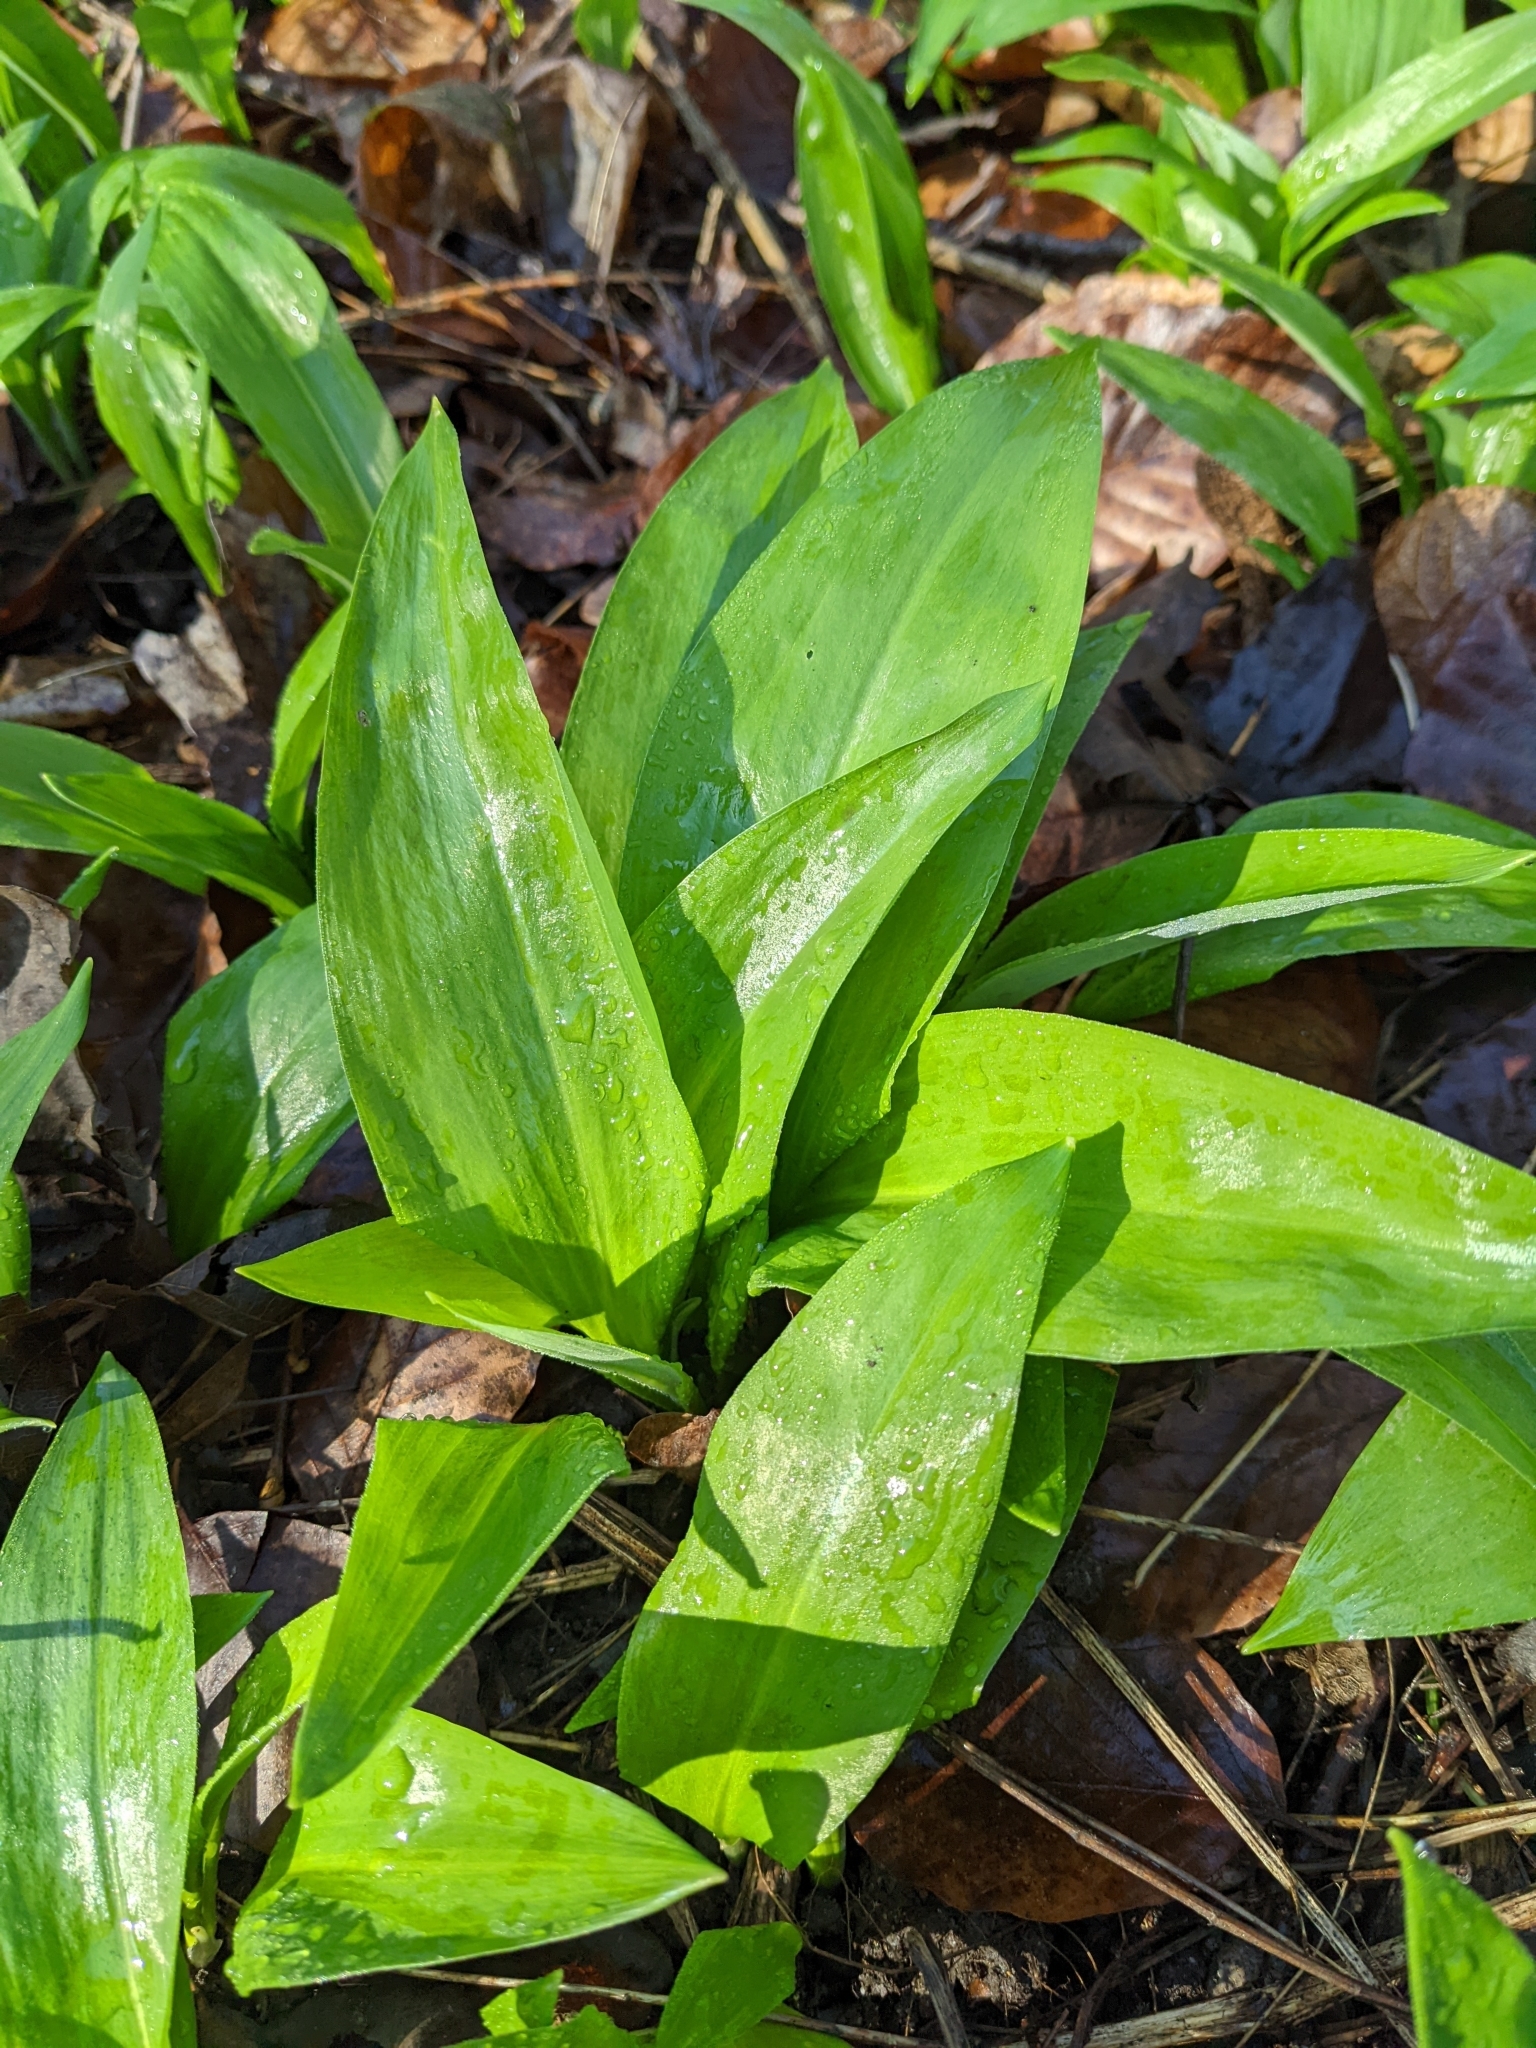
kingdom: Plantae
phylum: Tracheophyta
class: Liliopsida
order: Asparagales
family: Amaryllidaceae
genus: Allium
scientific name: Allium ursinum
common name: Ramsons
